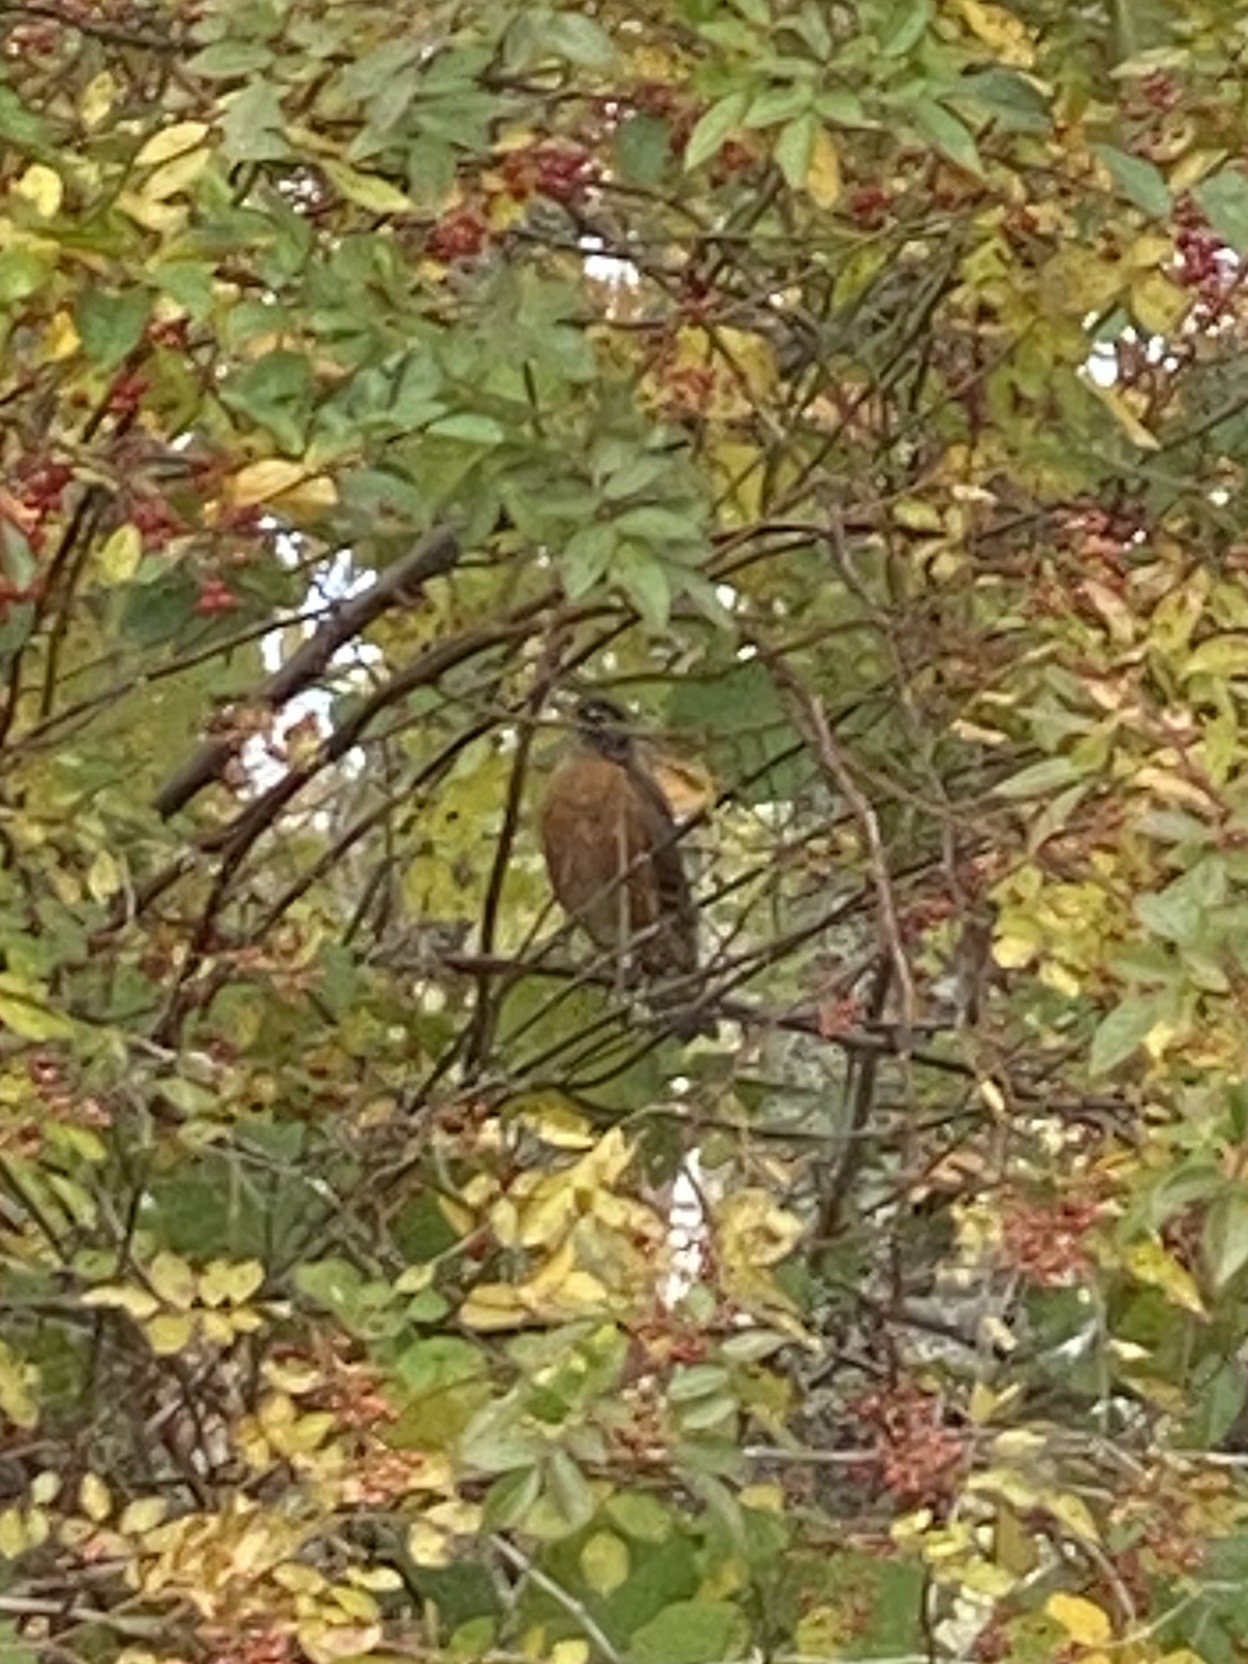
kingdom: Animalia
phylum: Chordata
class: Aves
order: Passeriformes
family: Turdidae
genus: Turdus
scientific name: Turdus migratorius
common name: American robin
